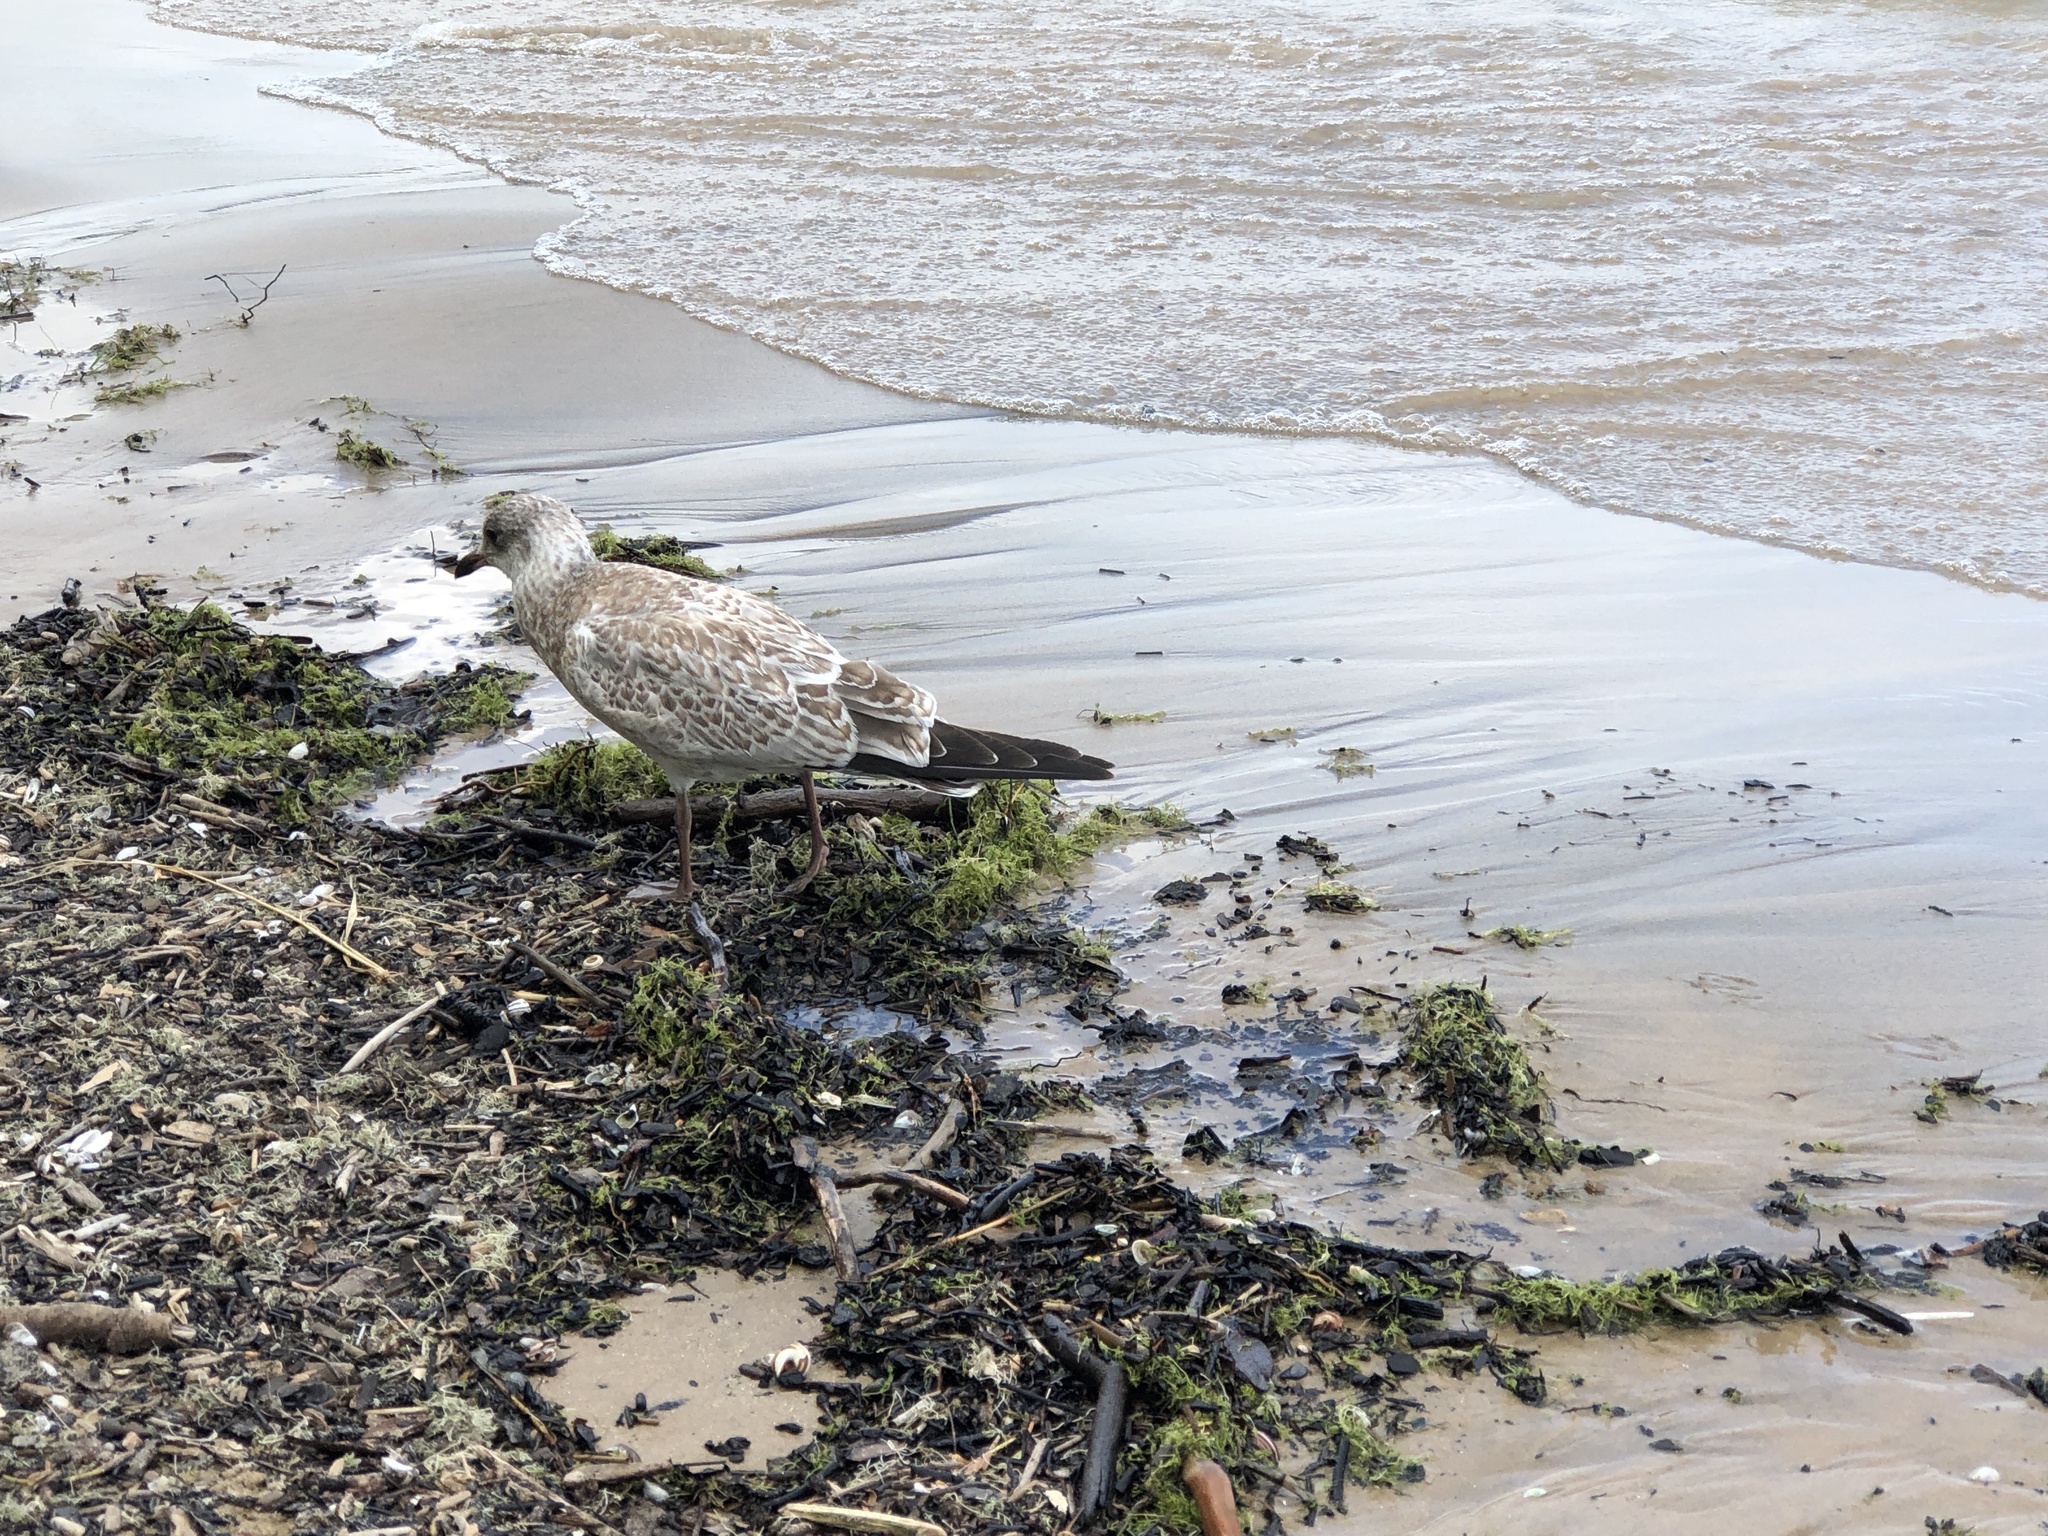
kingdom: Animalia
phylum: Chordata
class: Aves
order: Charadriiformes
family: Laridae
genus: Larus
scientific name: Larus argentatus
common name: Herring gull
